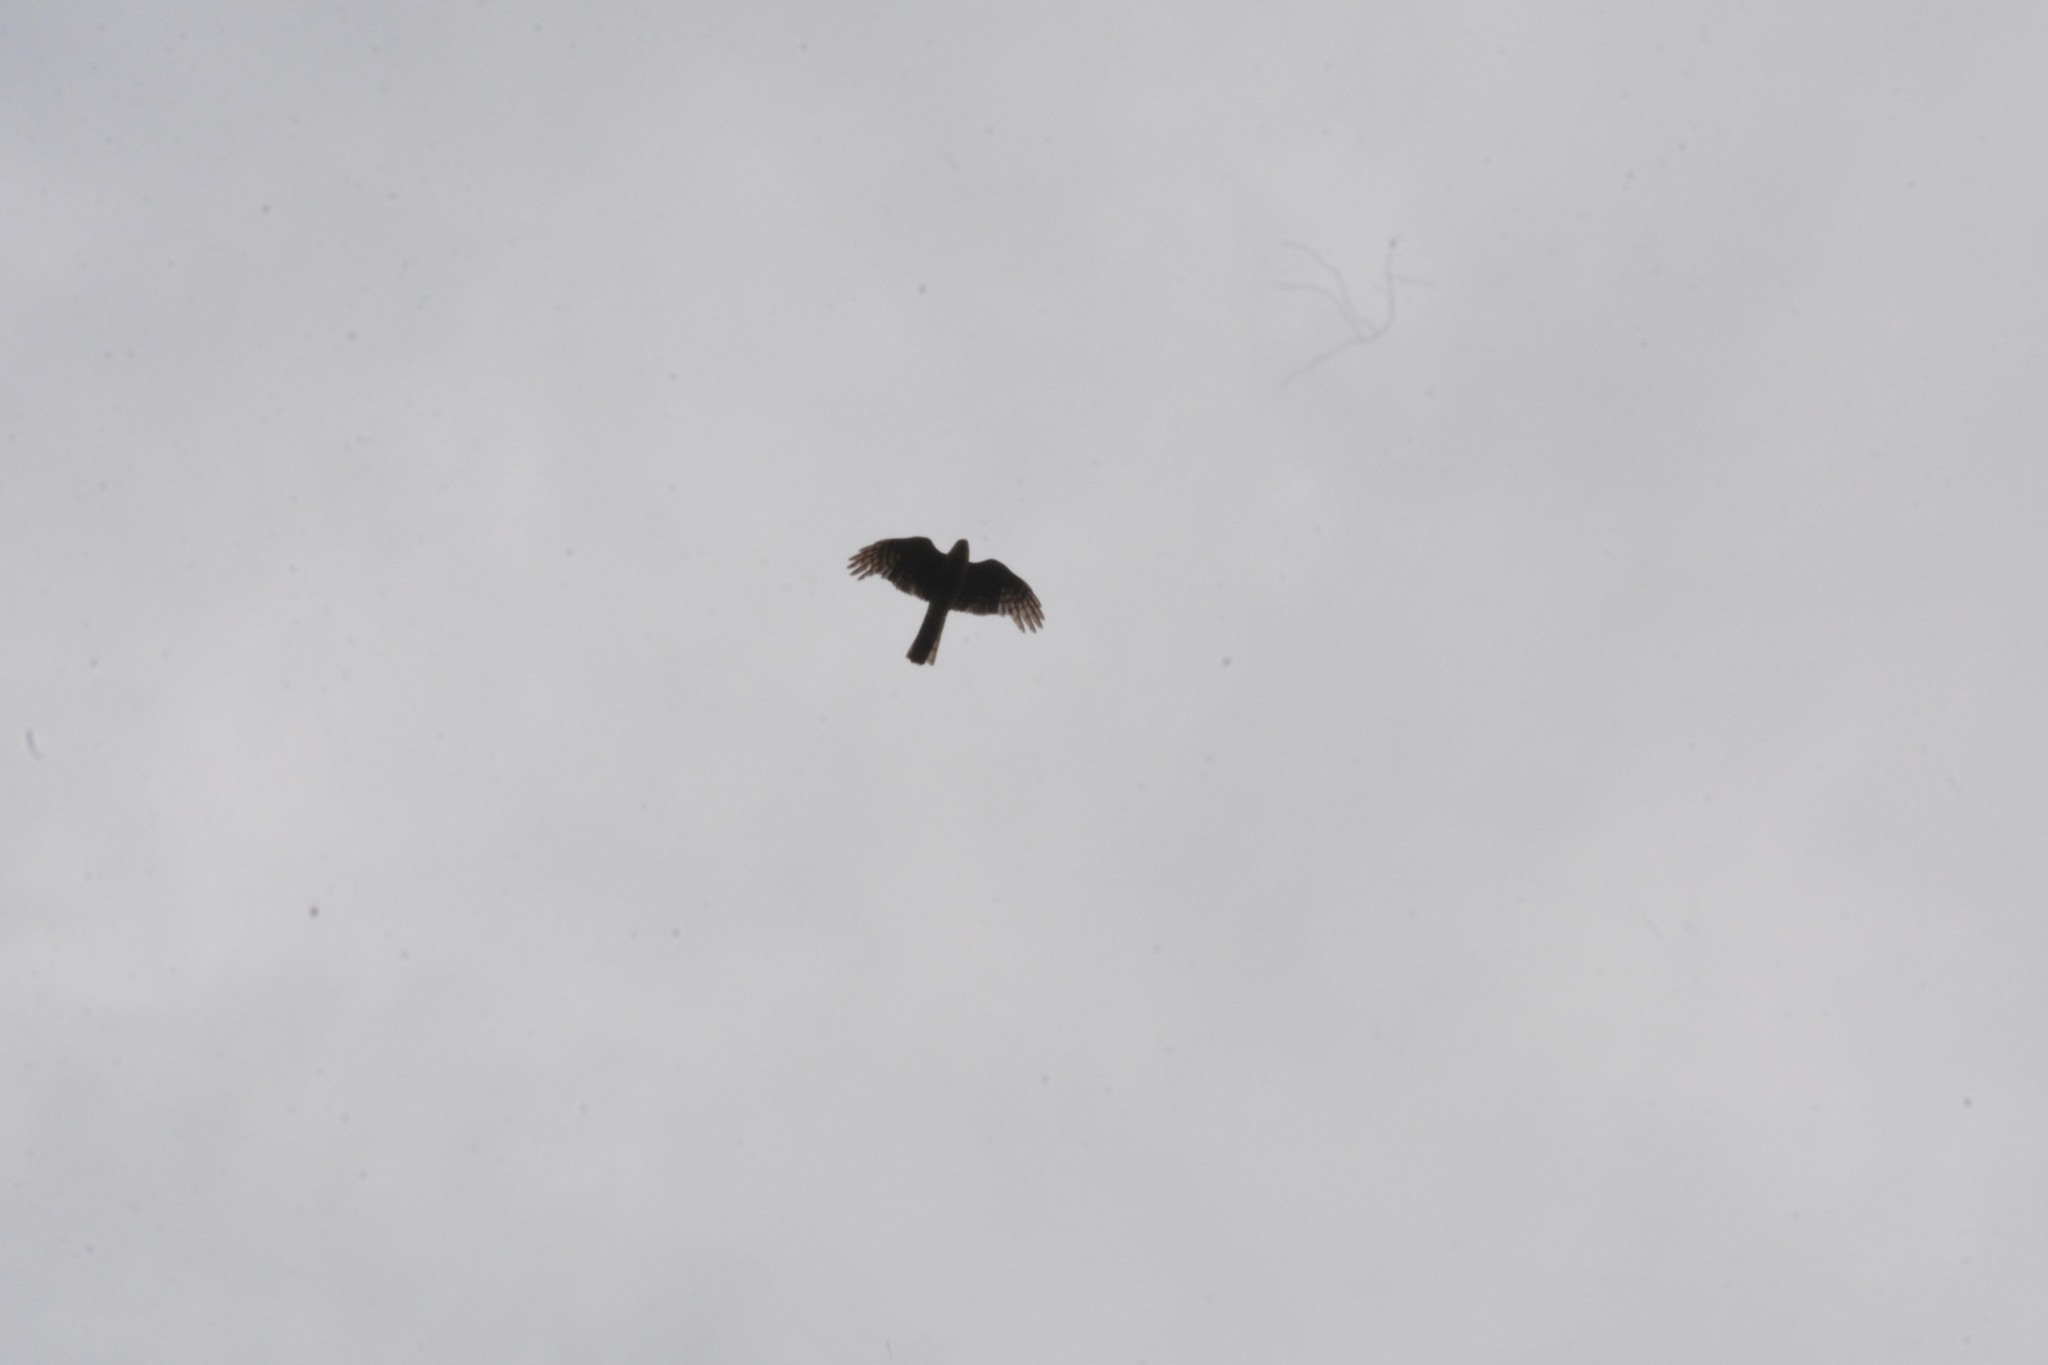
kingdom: Animalia
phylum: Chordata
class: Aves
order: Accipitriformes
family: Accipitridae
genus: Accipiter
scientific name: Accipiter nisus
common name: Eurasian sparrowhawk
